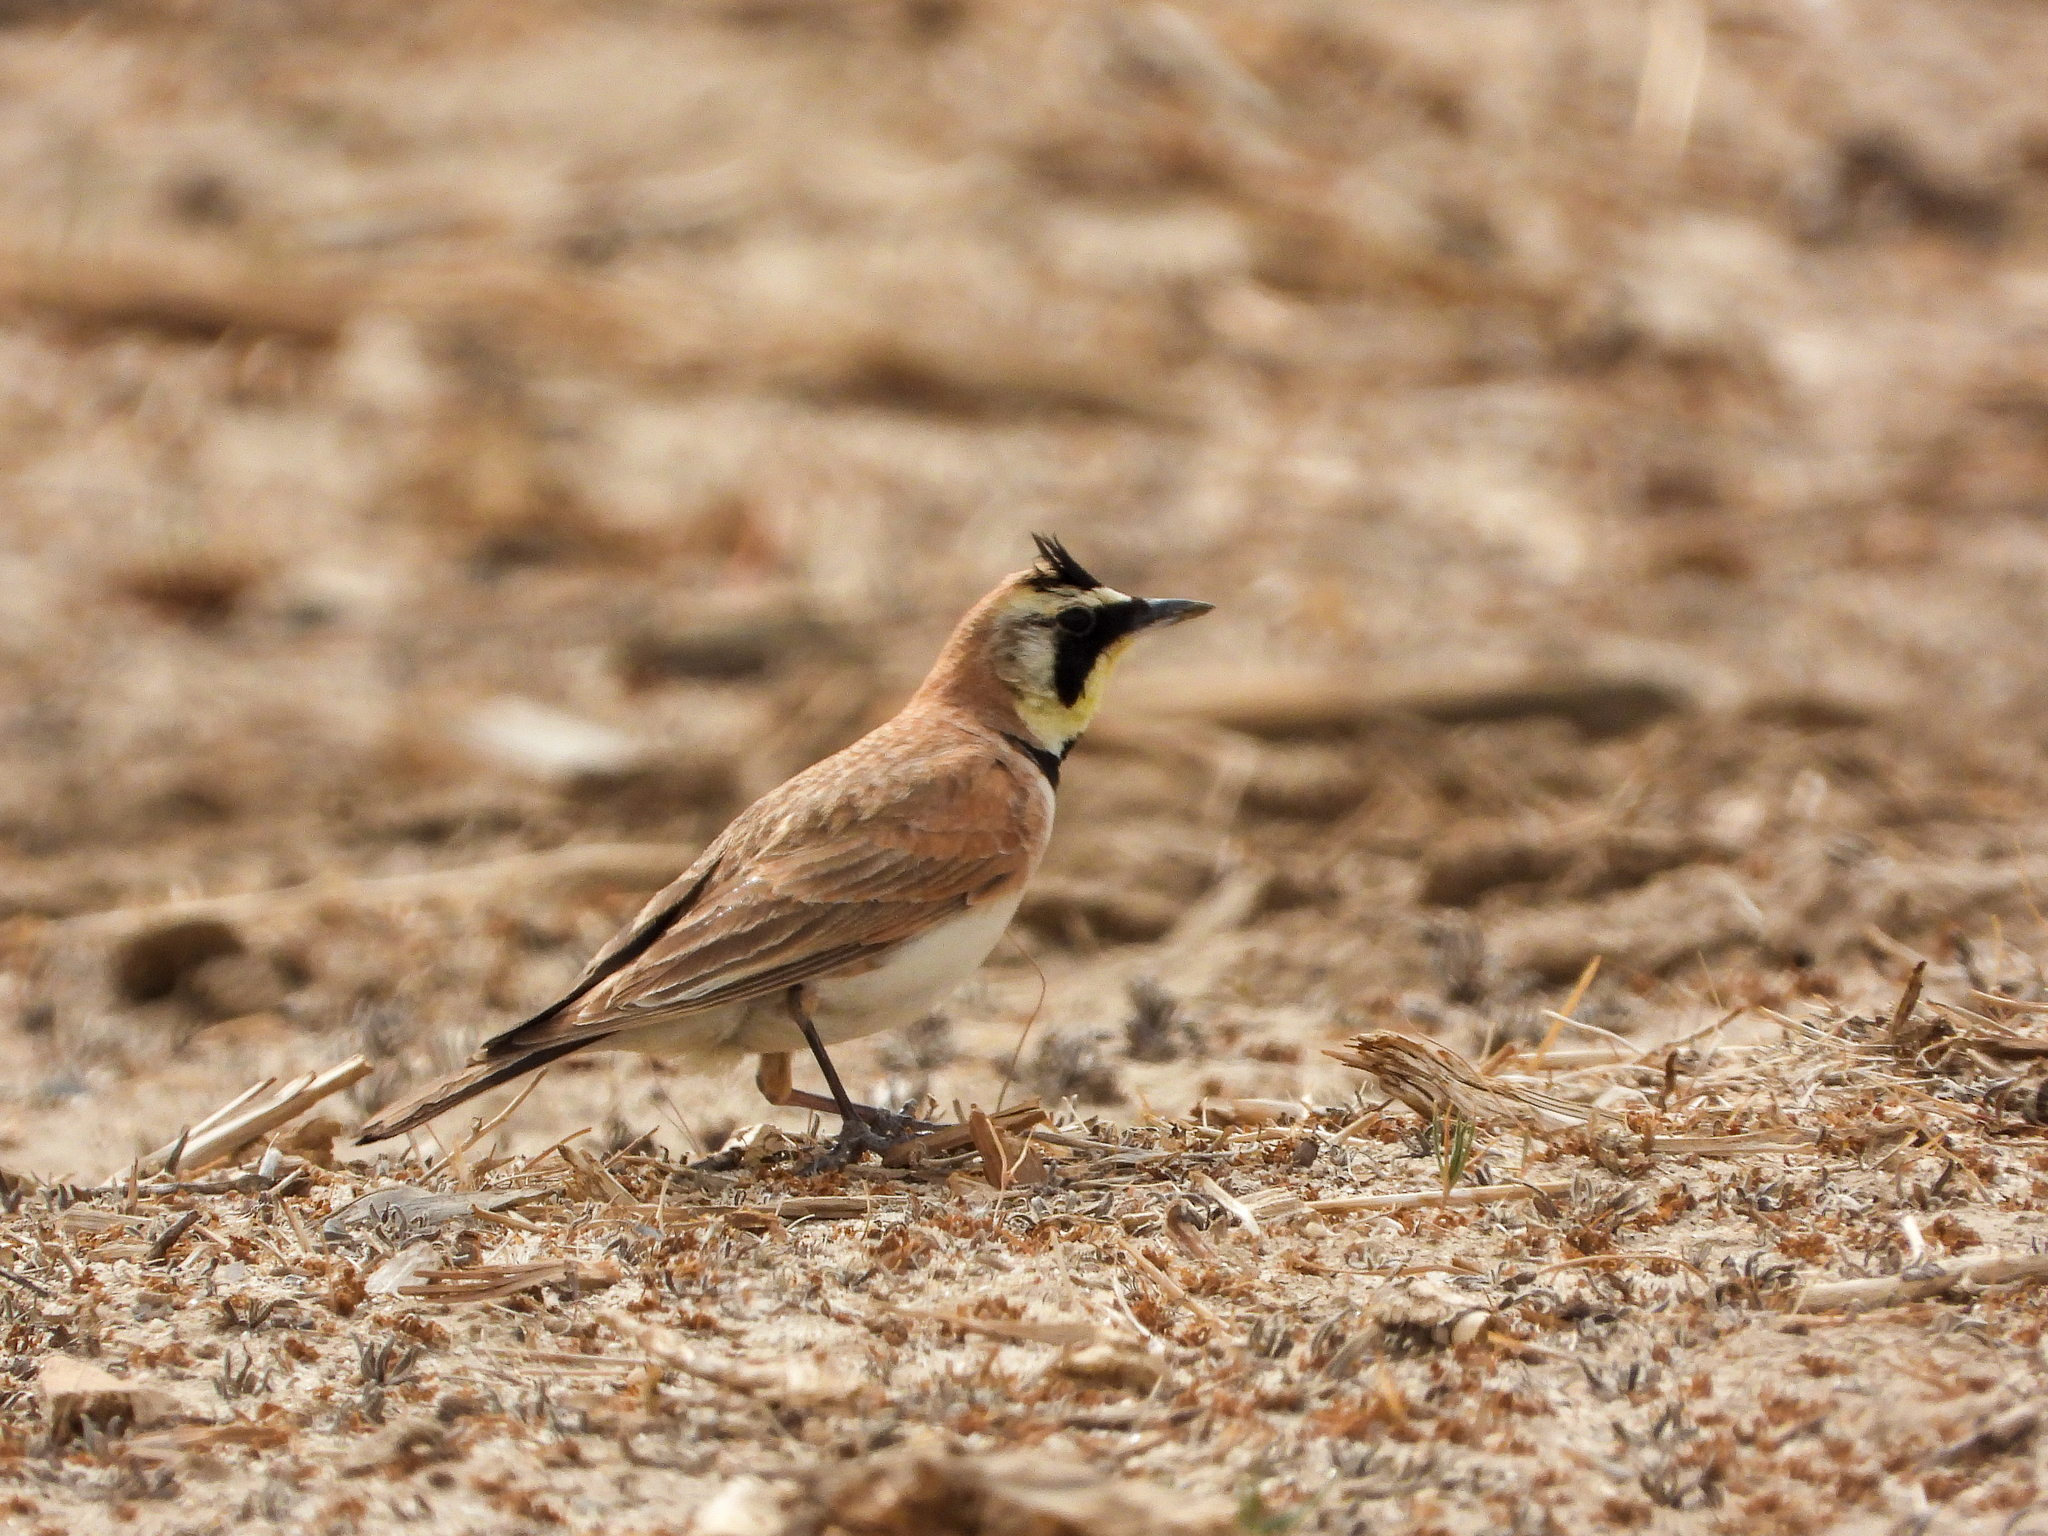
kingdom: Animalia
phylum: Chordata
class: Aves
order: Passeriformes
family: Alaudidae
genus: Eremophila
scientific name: Eremophila alpestris
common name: Horned lark
